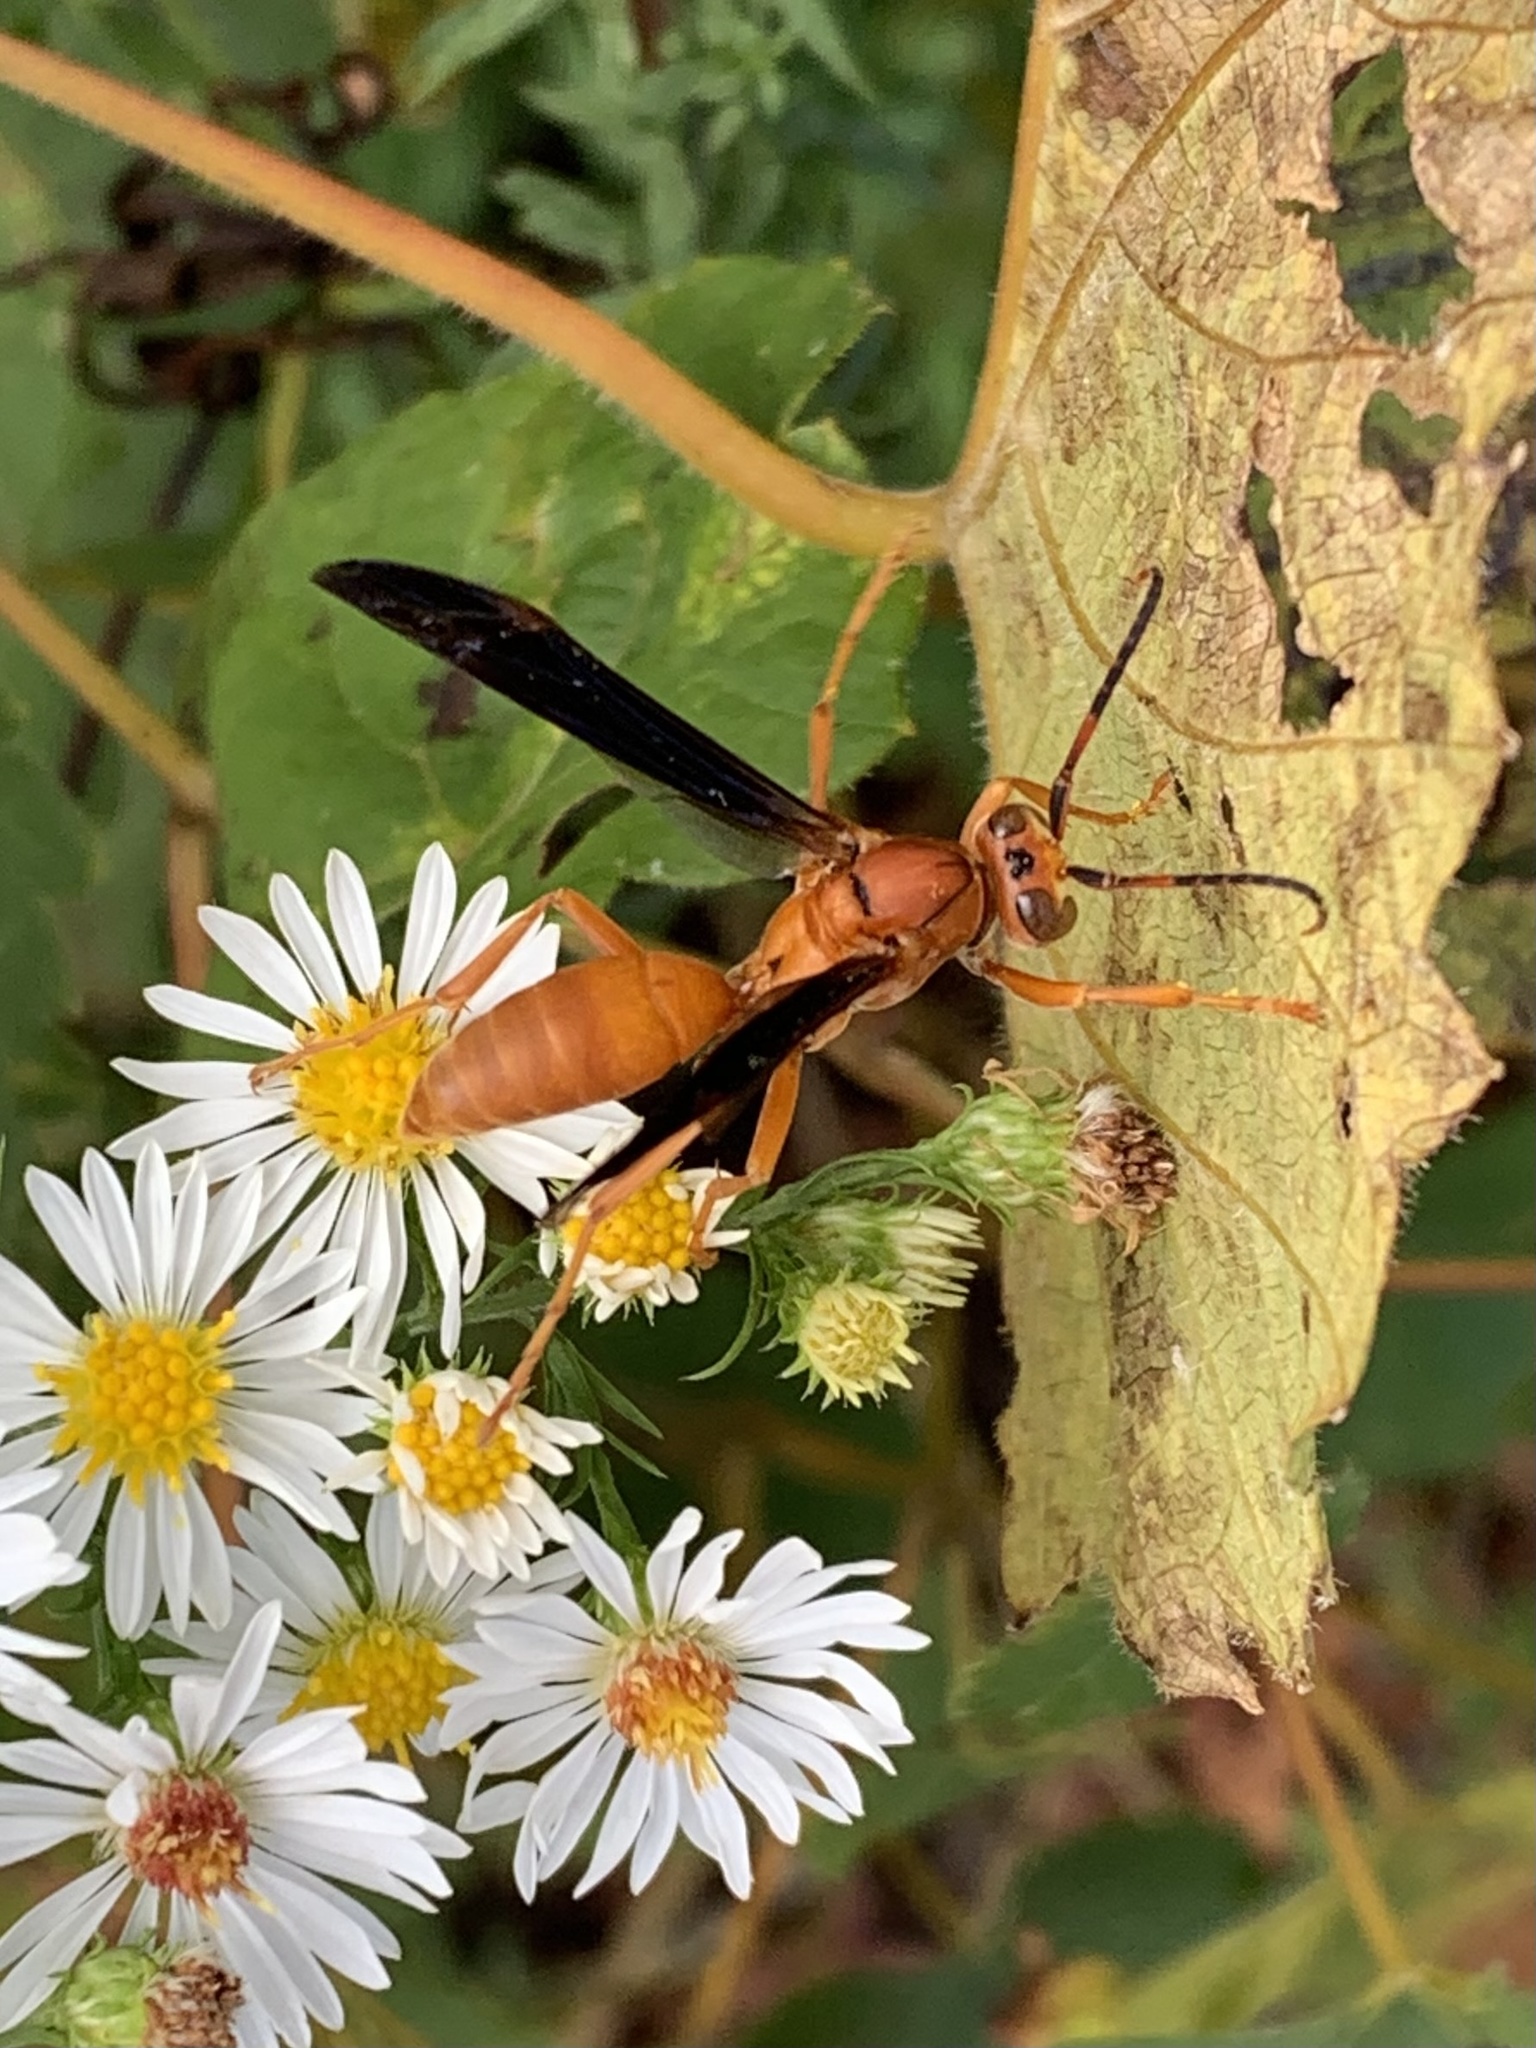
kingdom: Animalia
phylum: Arthropoda
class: Insecta
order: Hymenoptera
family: Eumenidae
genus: Polistes
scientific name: Polistes carolina
